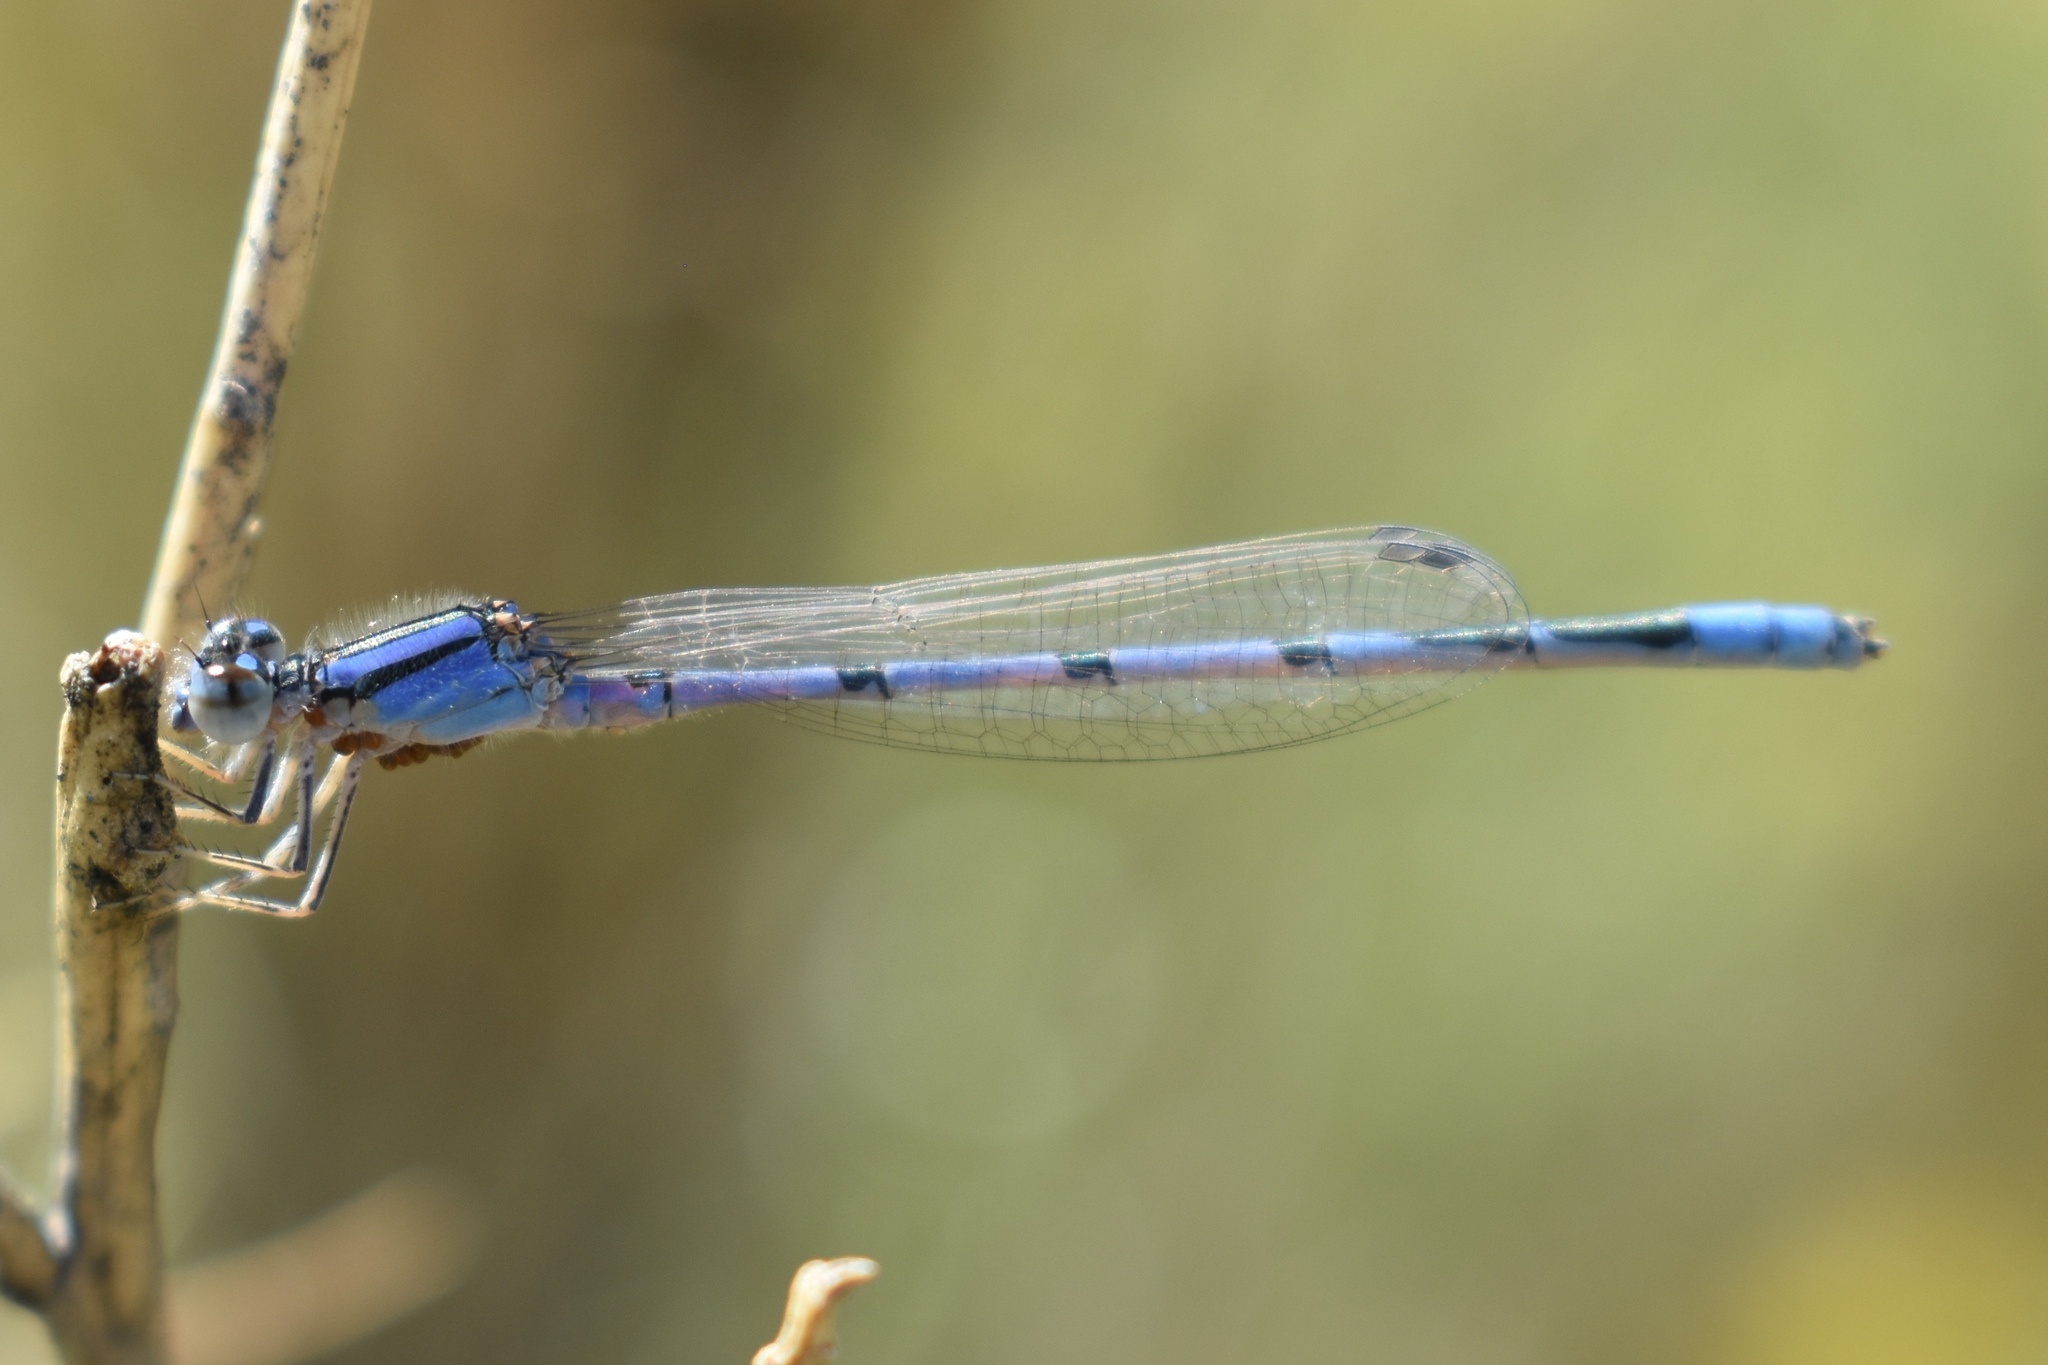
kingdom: Animalia
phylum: Arthropoda
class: Insecta
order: Odonata
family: Coenagrionidae
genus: Enallagma
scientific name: Enallagma civile
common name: Damselfly
